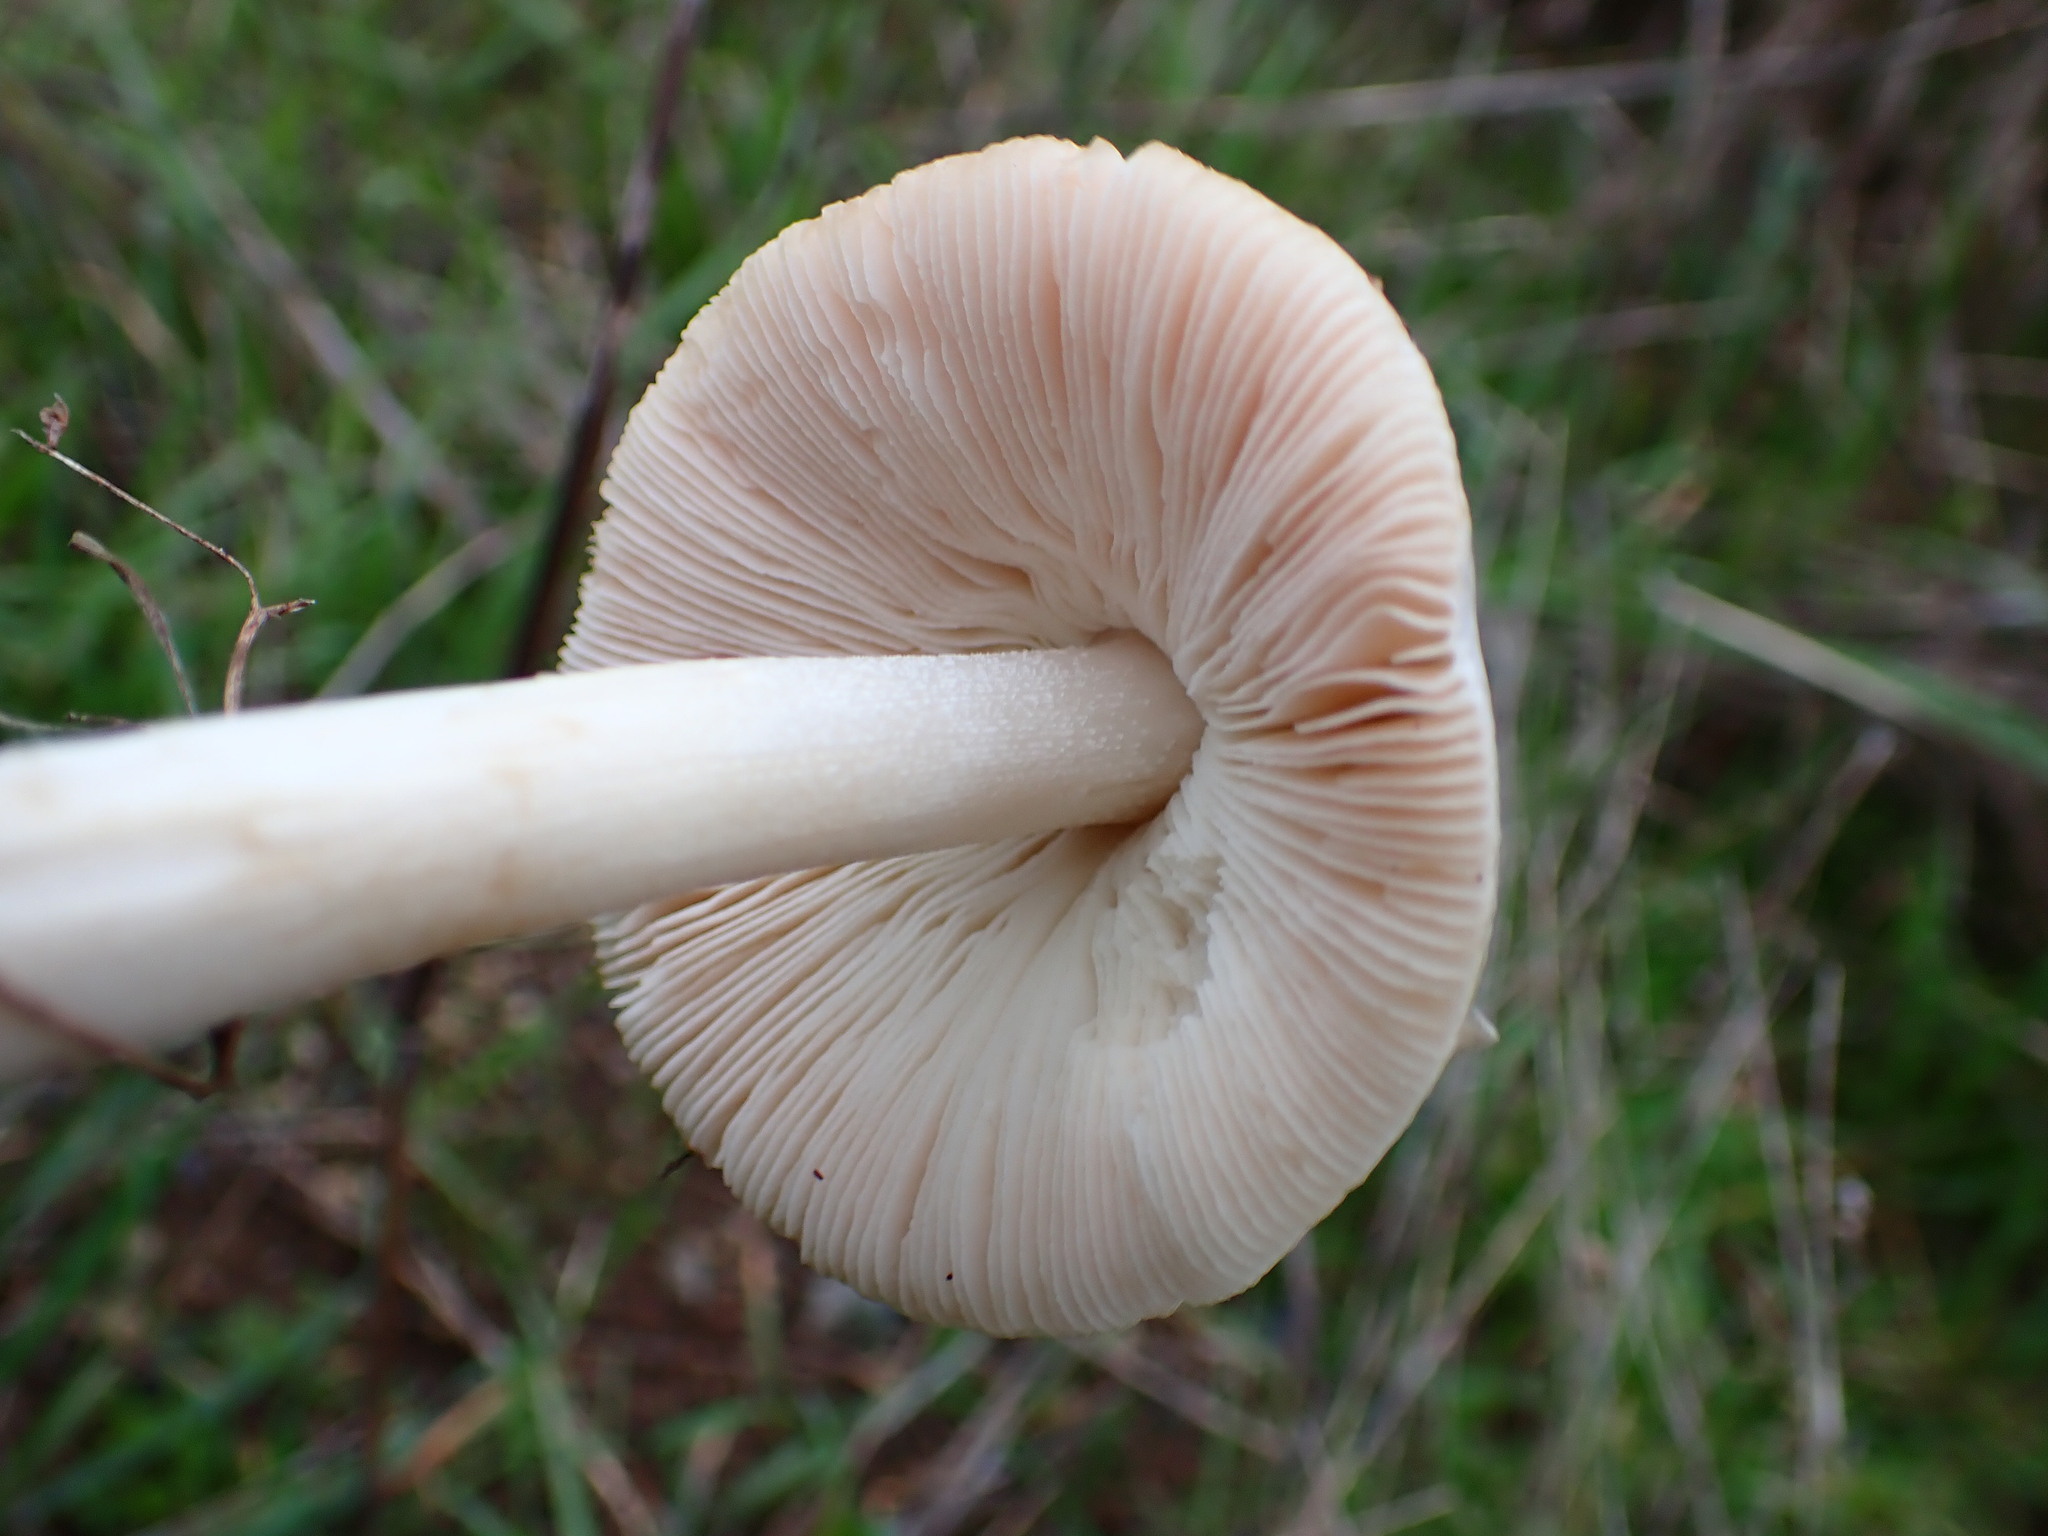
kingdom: Fungi
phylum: Basidiomycota
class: Agaricomycetes
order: Agaricales
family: Pluteaceae
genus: Volvopluteus
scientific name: Volvopluteus gloiocephalus
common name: Stubble rosegill
